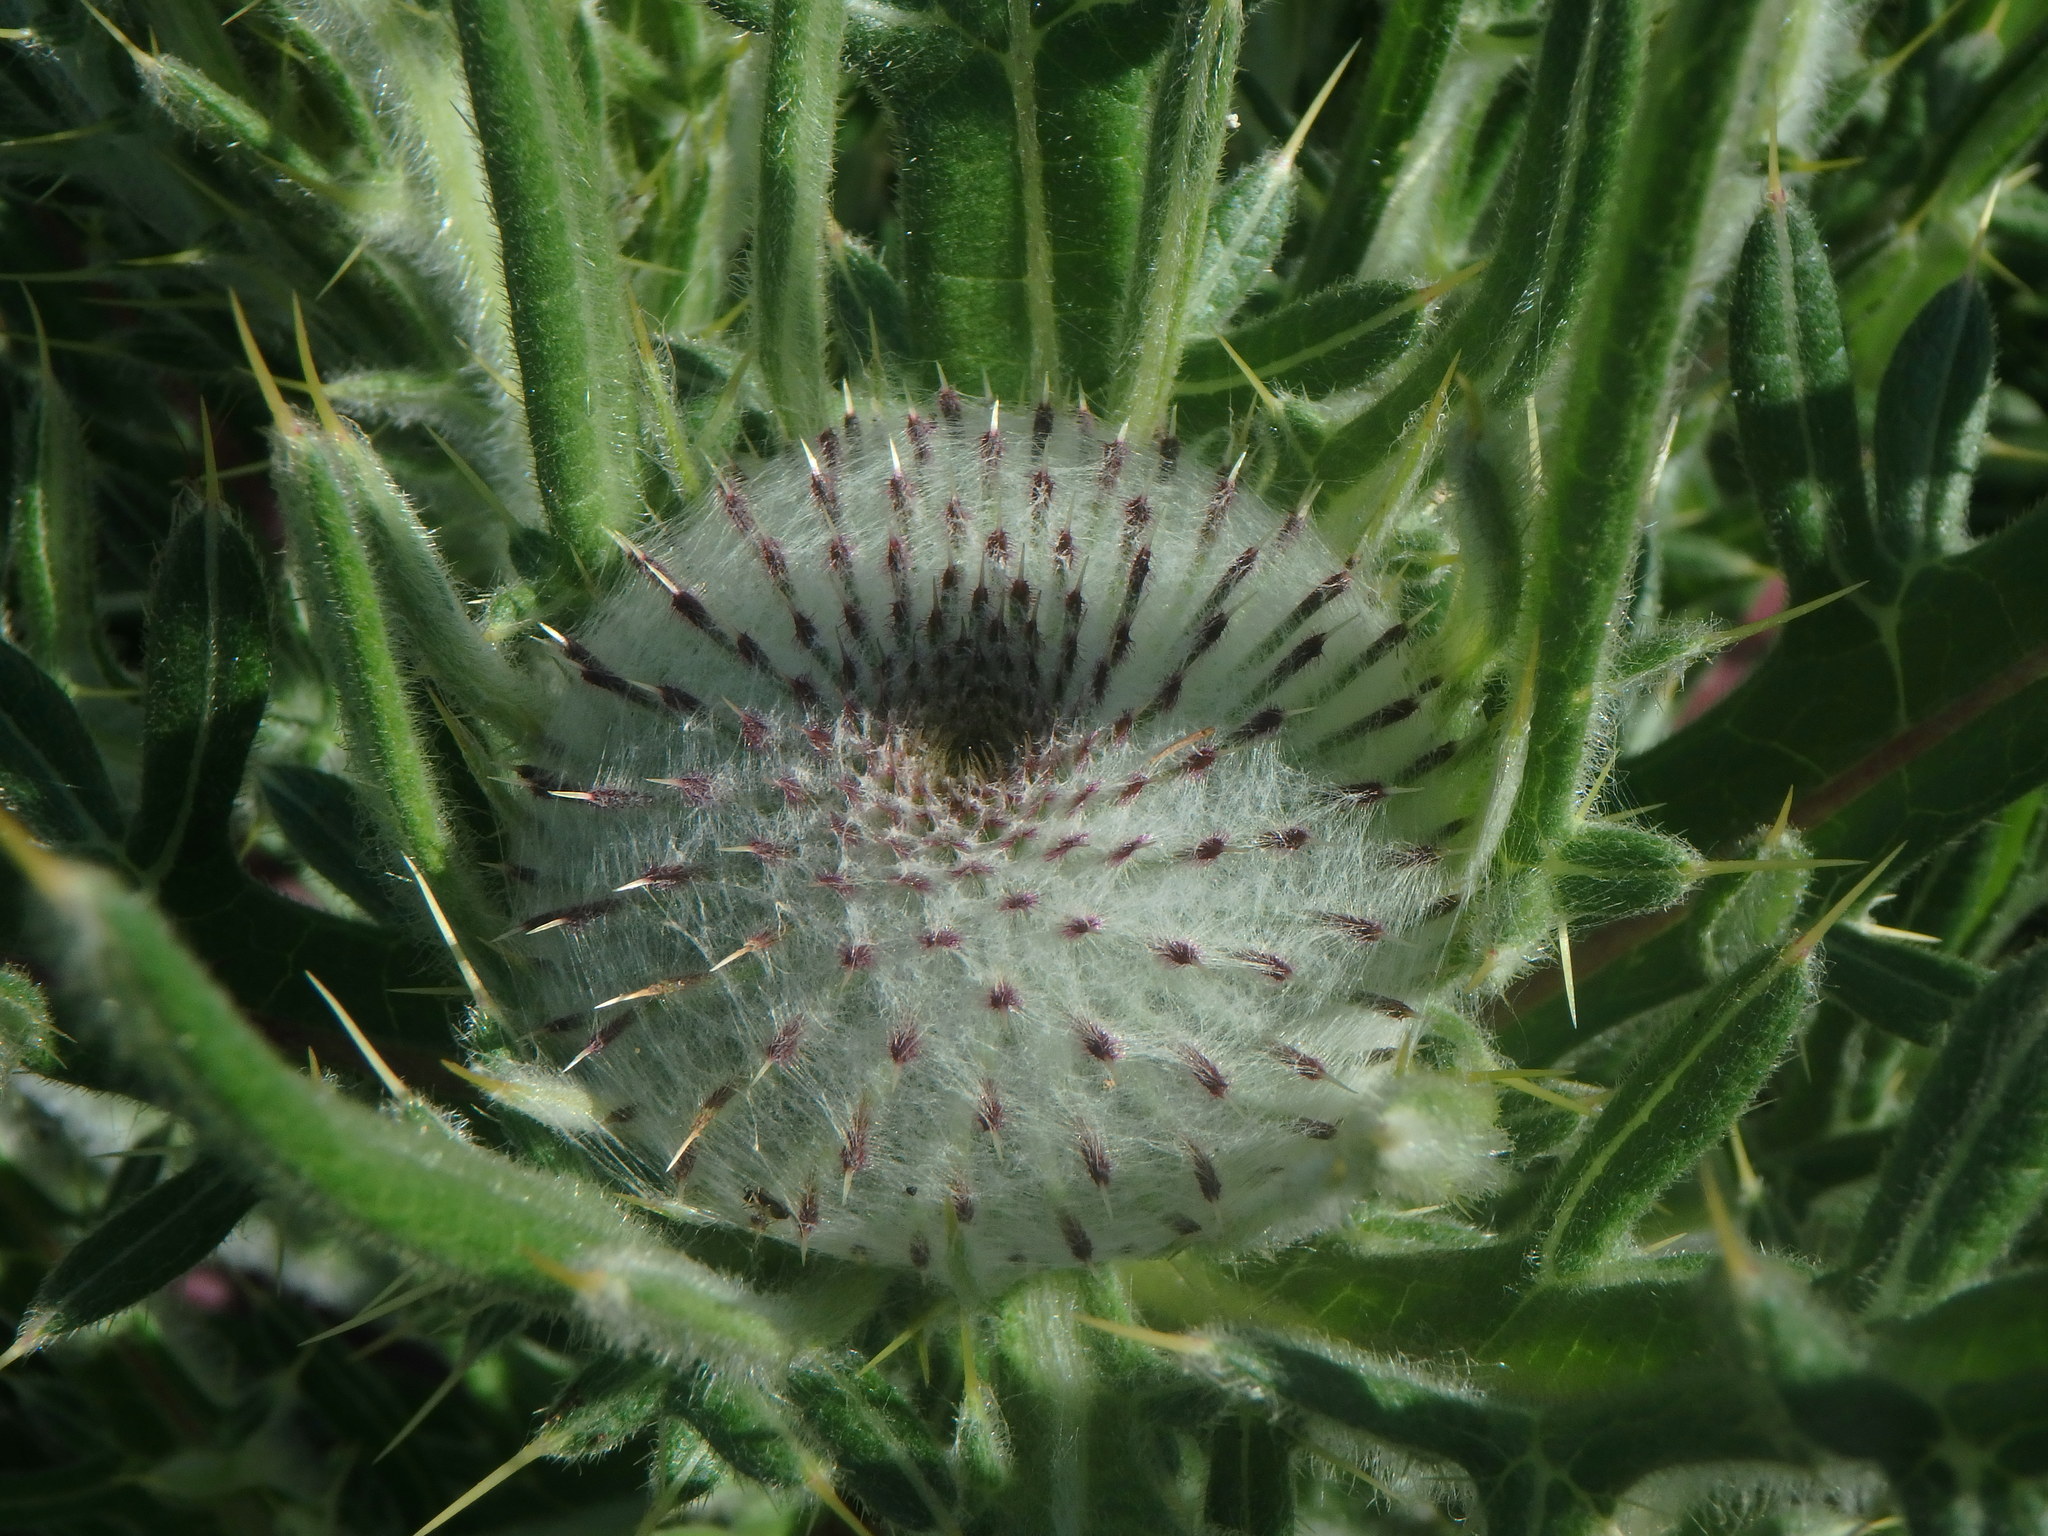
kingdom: Plantae
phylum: Tracheophyta
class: Magnoliopsida
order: Asterales
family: Asteraceae
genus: Lophiolepis
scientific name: Lophiolepis eriophora
